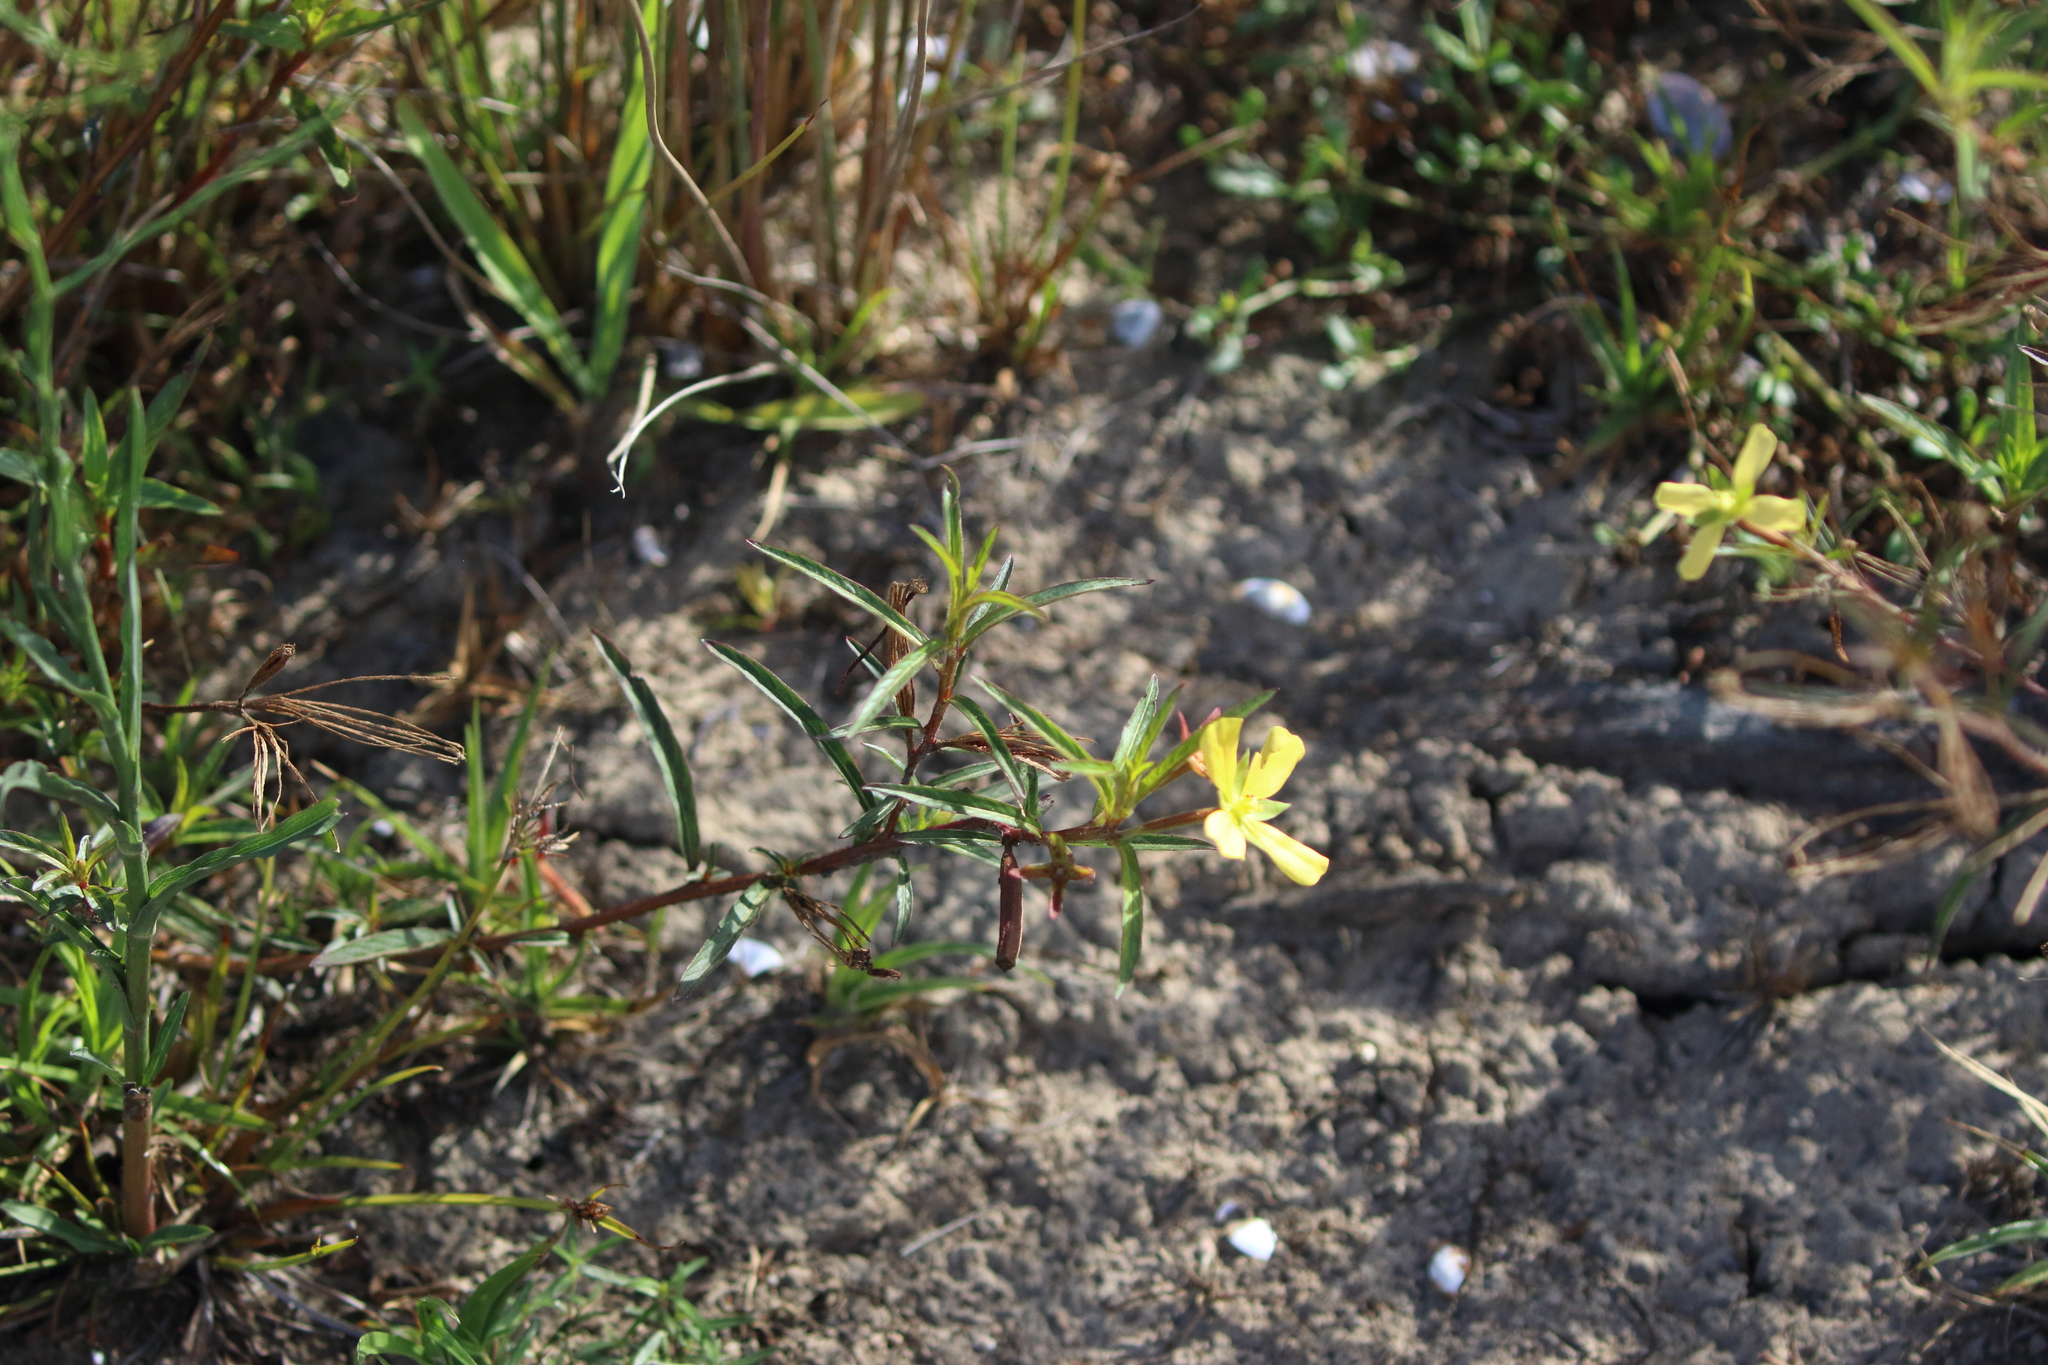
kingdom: Plantae
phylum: Tracheophyta
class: Magnoliopsida
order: Myrtales
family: Onagraceae
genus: Ludwigia
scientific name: Ludwigia octovalvis
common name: Water-primrose
